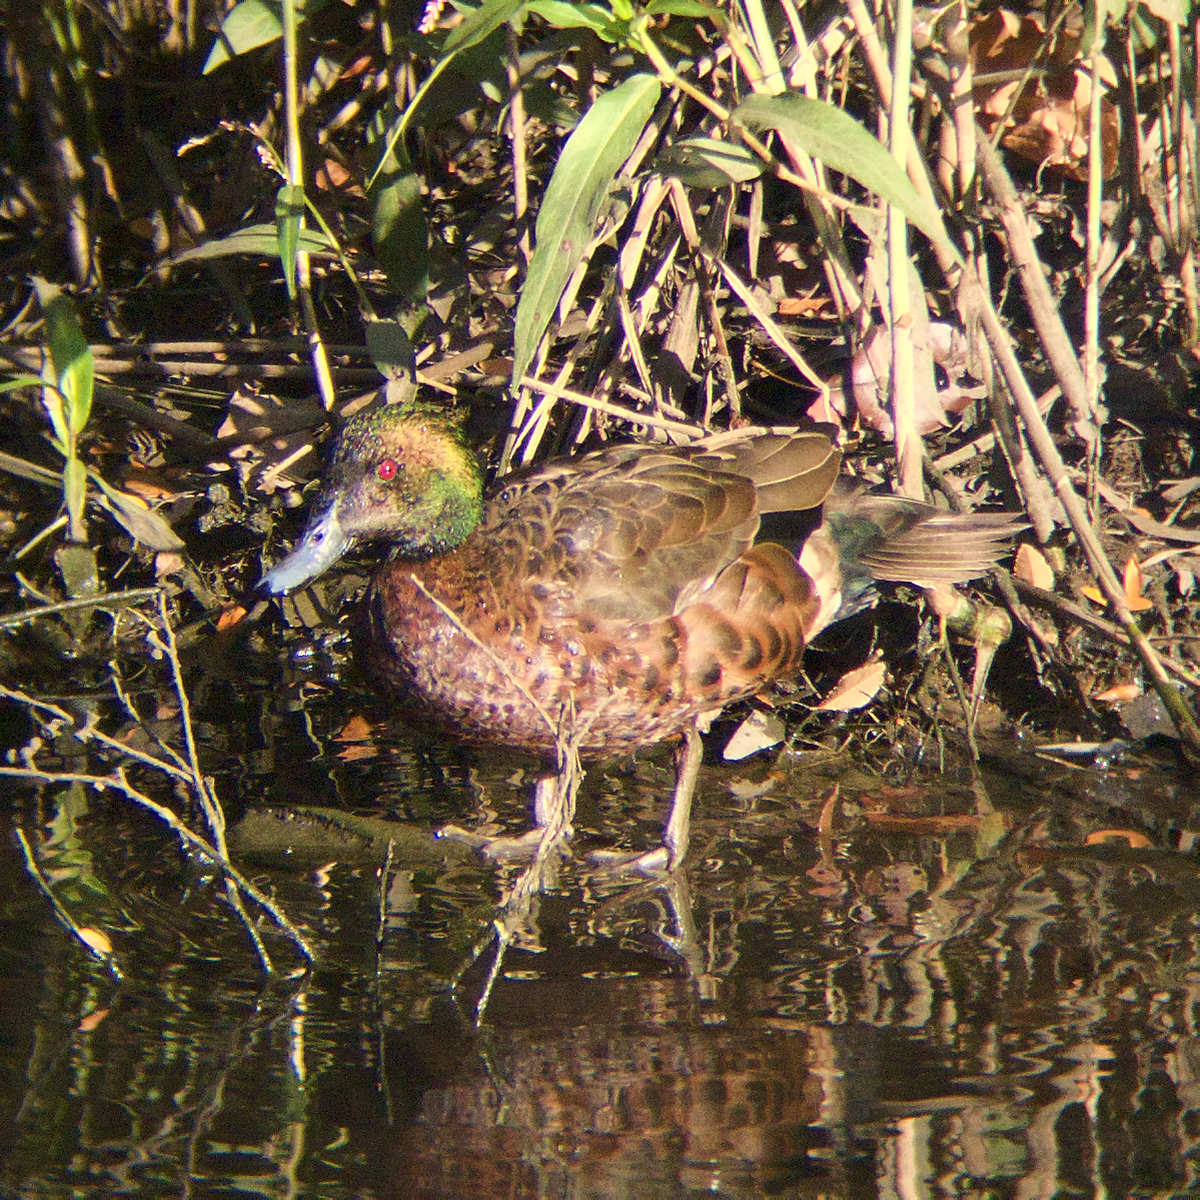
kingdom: Animalia
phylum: Chordata
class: Aves
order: Anseriformes
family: Anatidae
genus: Anas
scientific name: Anas castanea
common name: Chestnut teal
